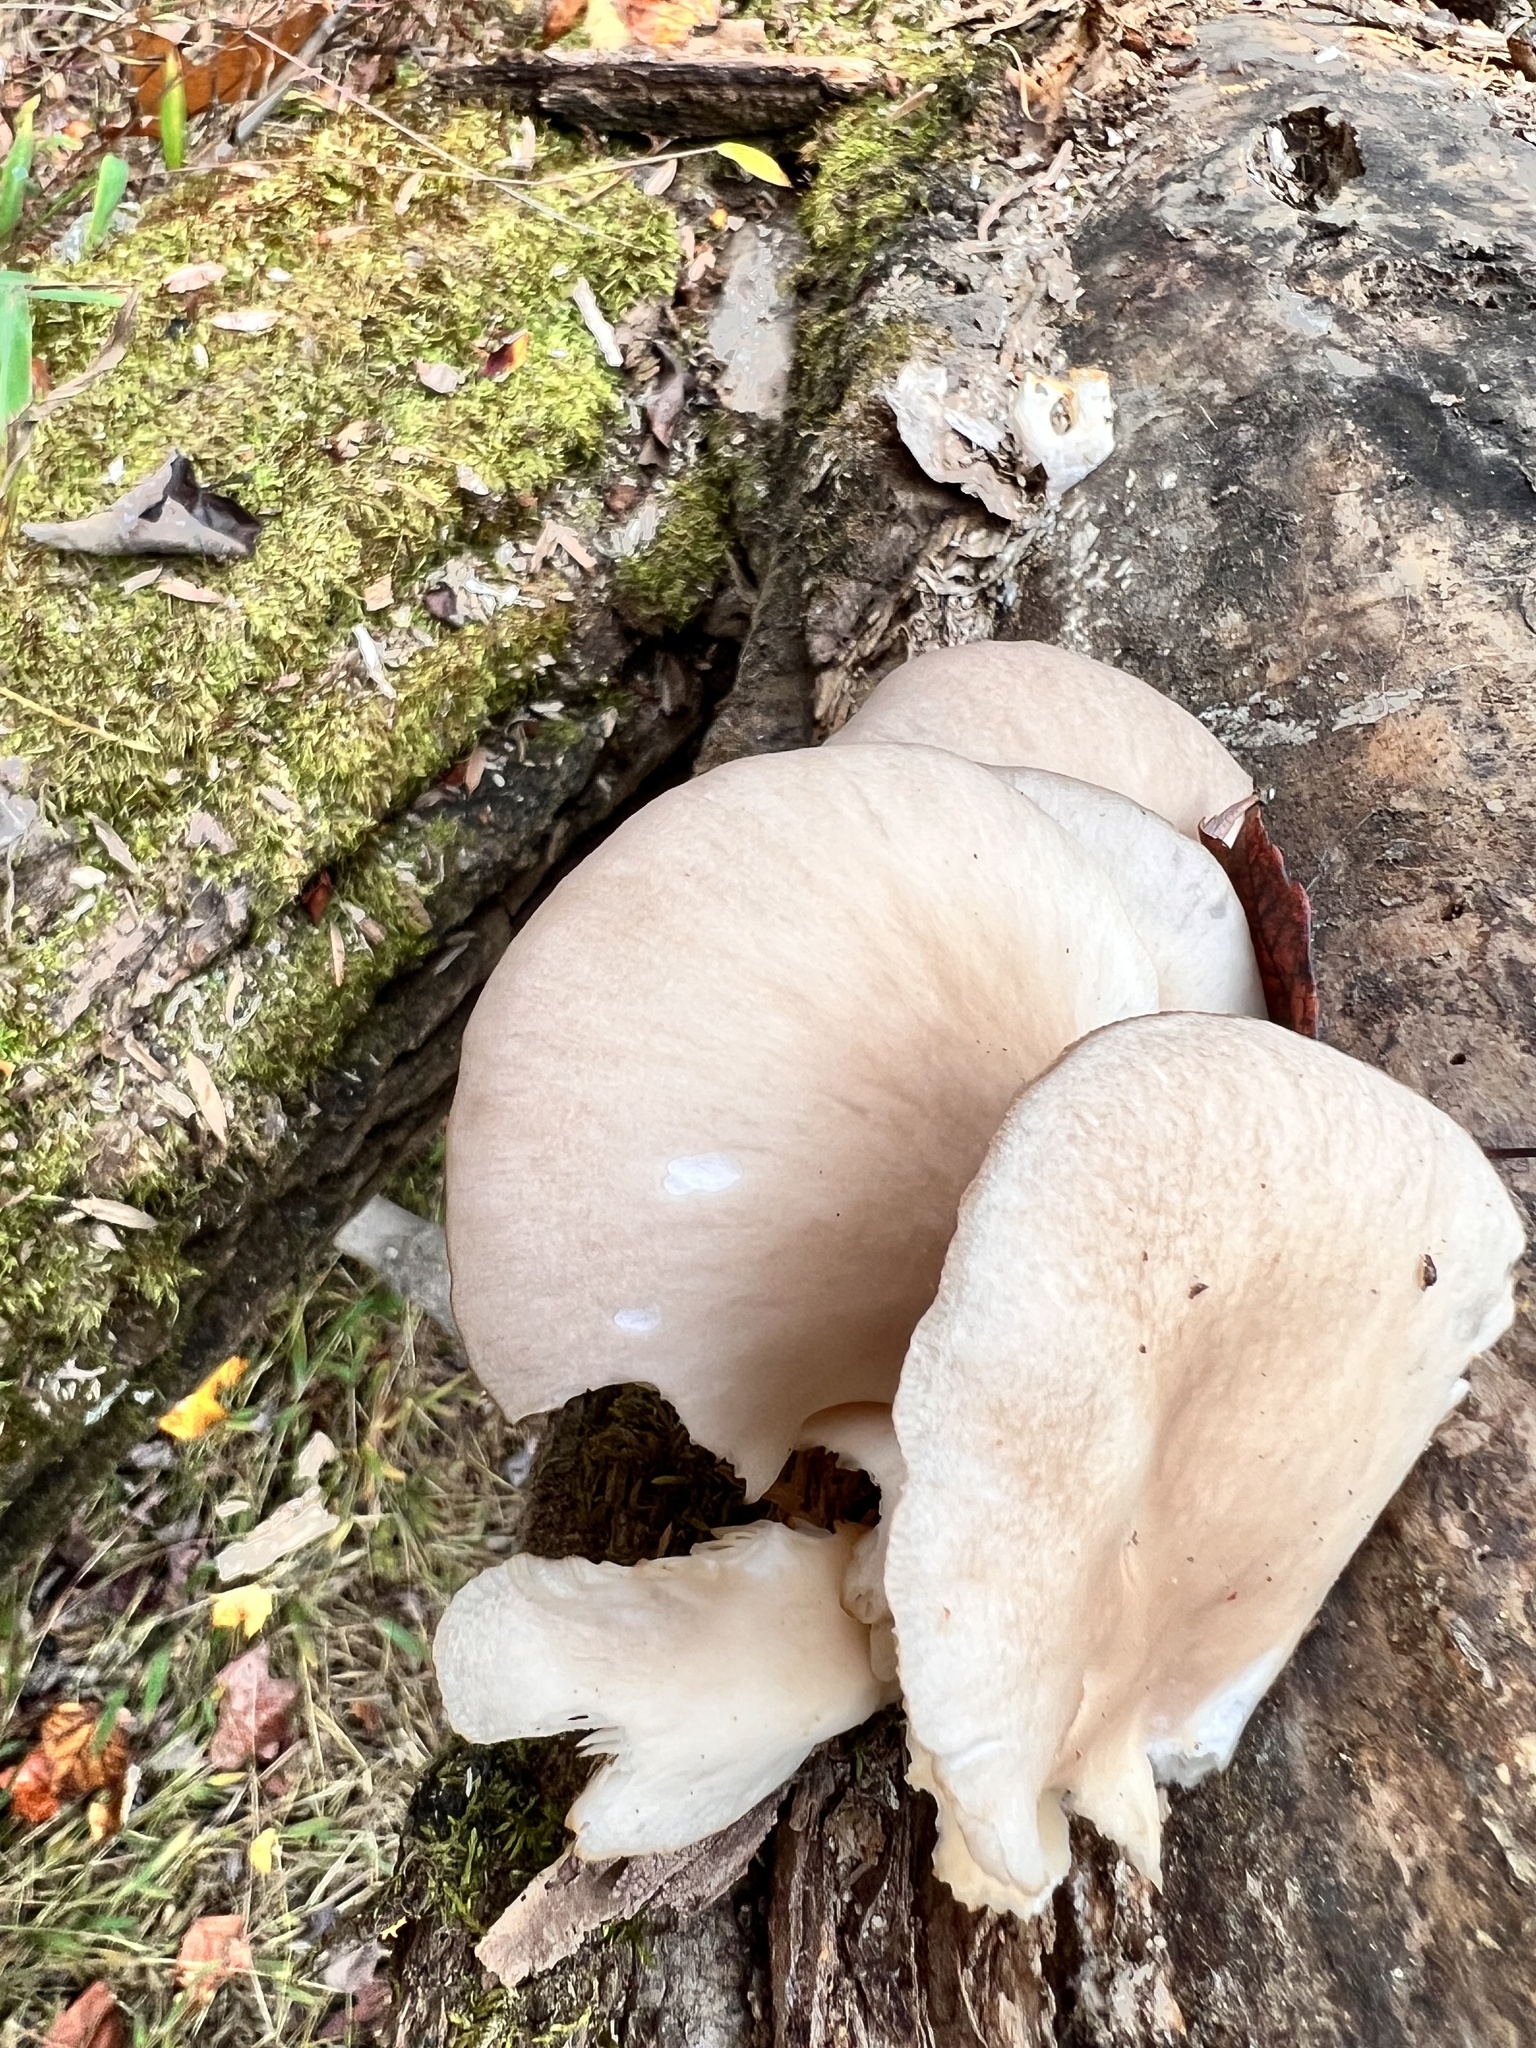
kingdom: Fungi
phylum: Basidiomycota
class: Agaricomycetes
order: Agaricales
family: Pleurotaceae
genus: Pleurotus
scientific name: Pleurotus ostreatus
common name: Oyster mushroom
